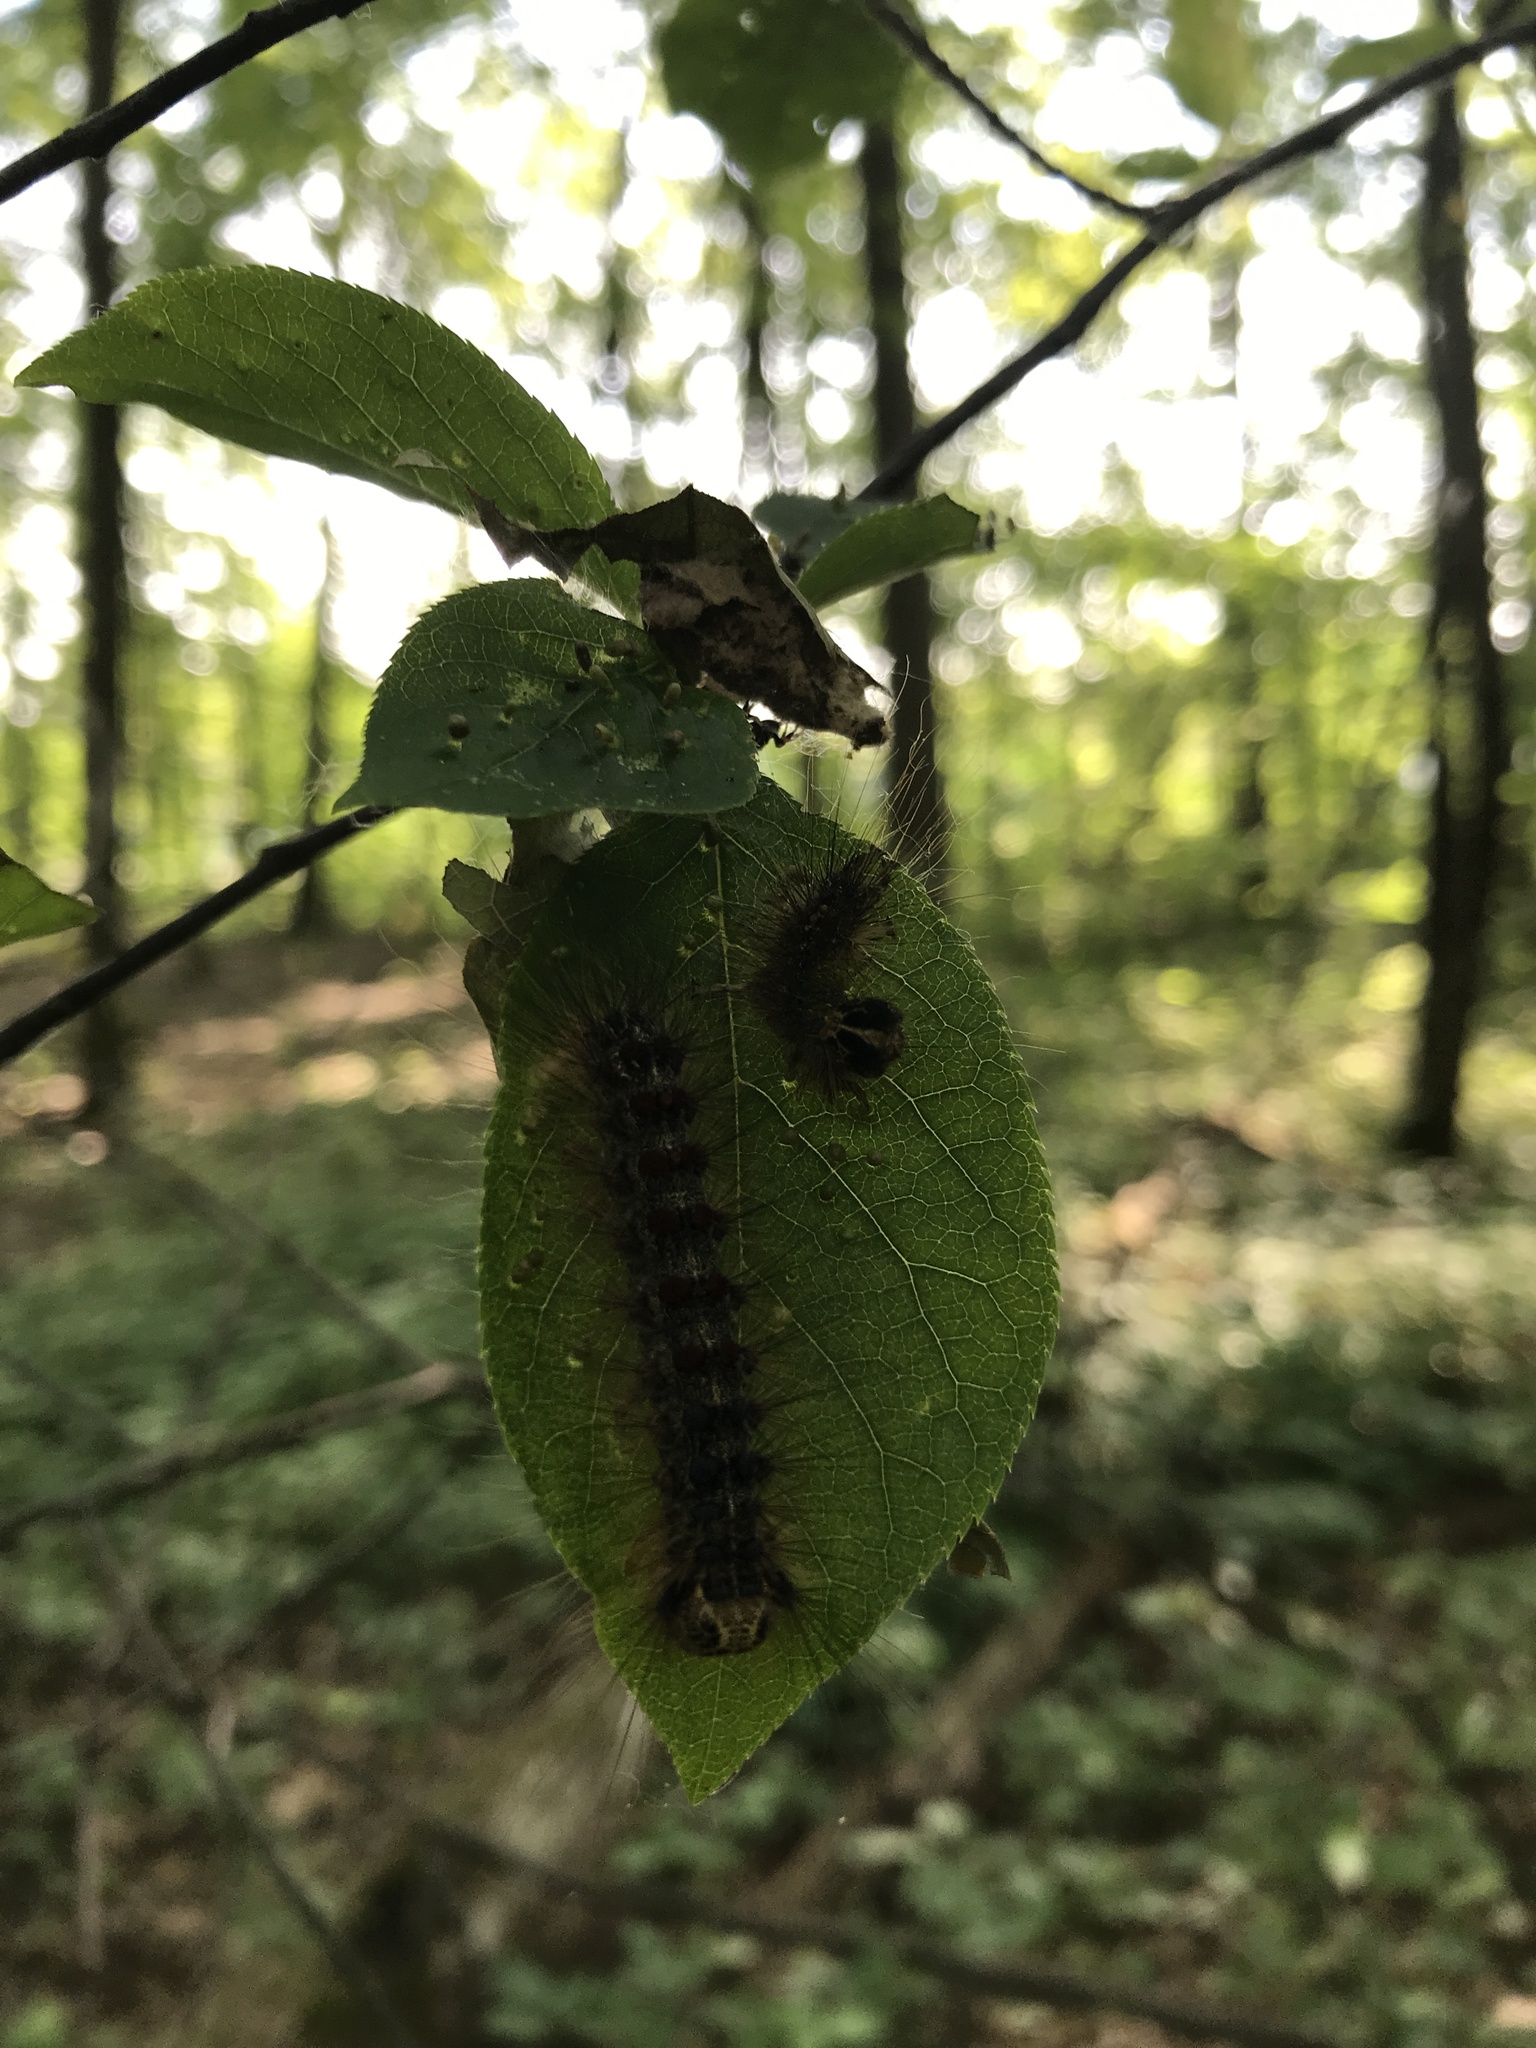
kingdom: Animalia
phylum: Arthropoda
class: Insecta
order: Lepidoptera
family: Erebidae
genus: Lymantria
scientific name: Lymantria dispar
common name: Gypsy moth
